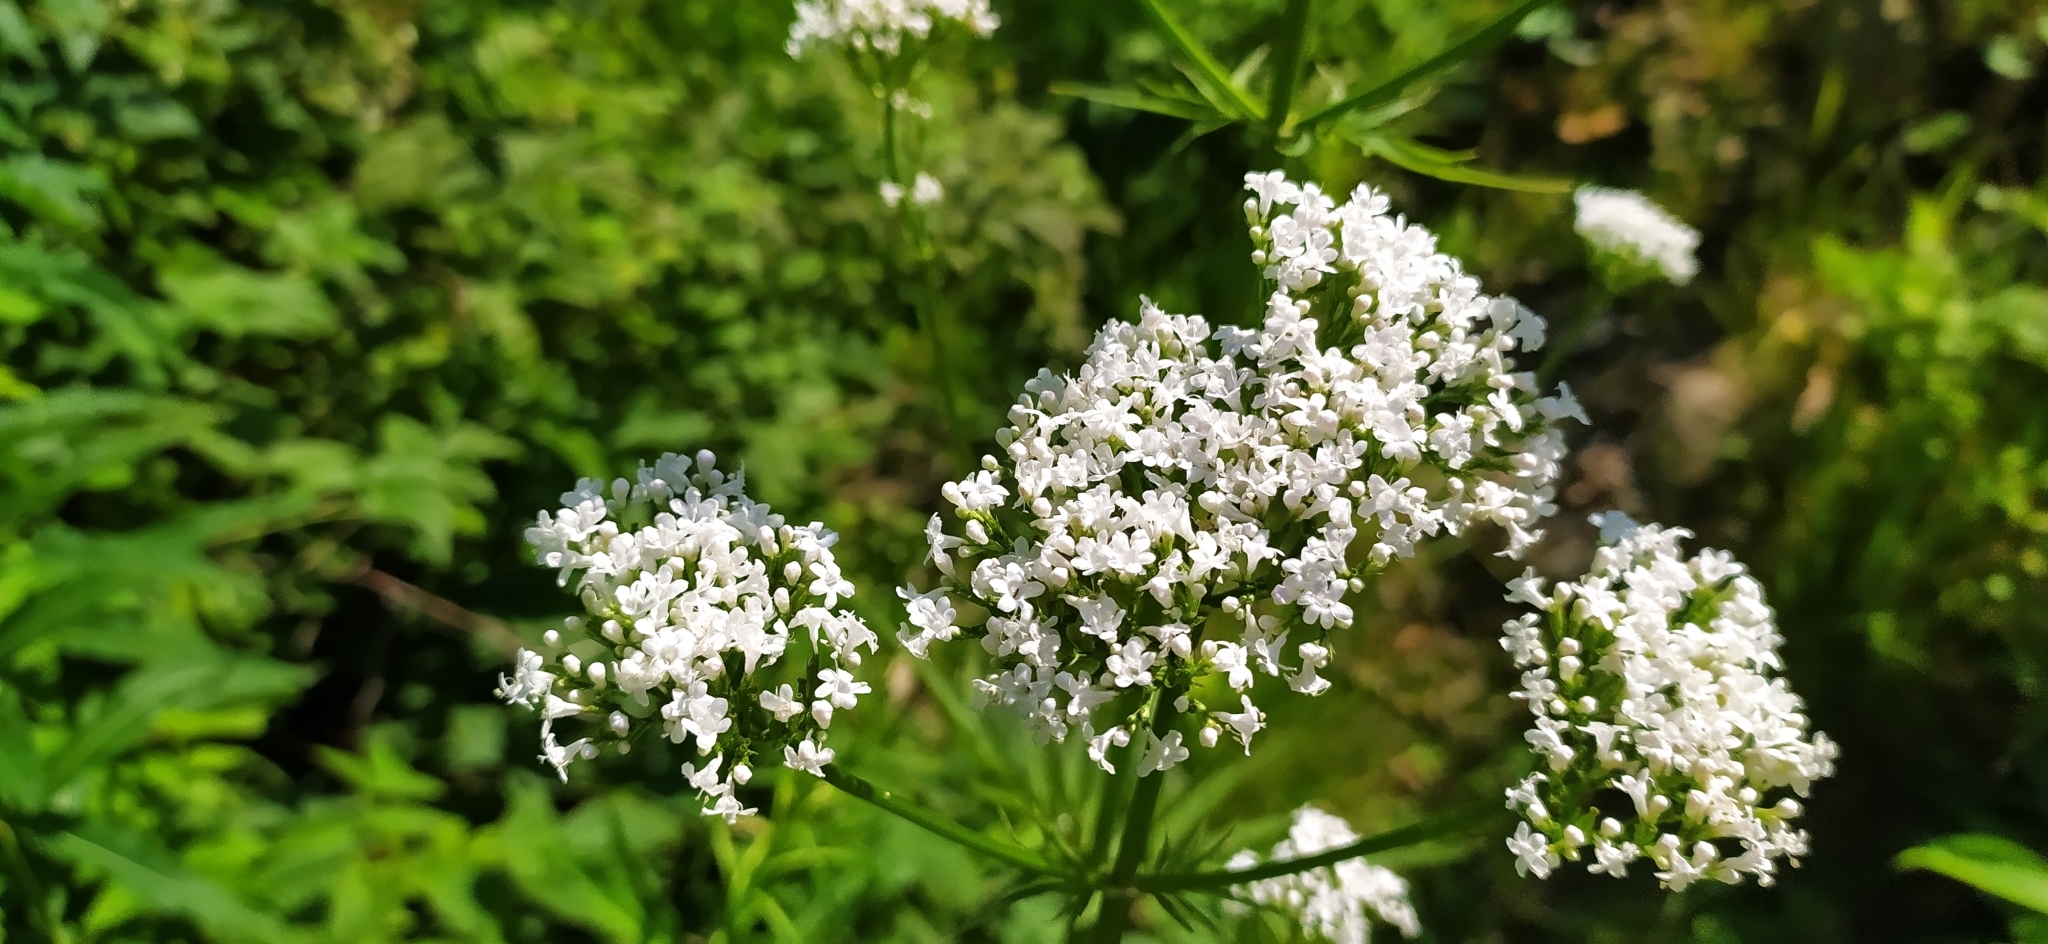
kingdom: Plantae
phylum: Tracheophyta
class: Magnoliopsida
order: Dipsacales
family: Caprifoliaceae
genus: Valeriana
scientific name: Valeriana wolgensis
